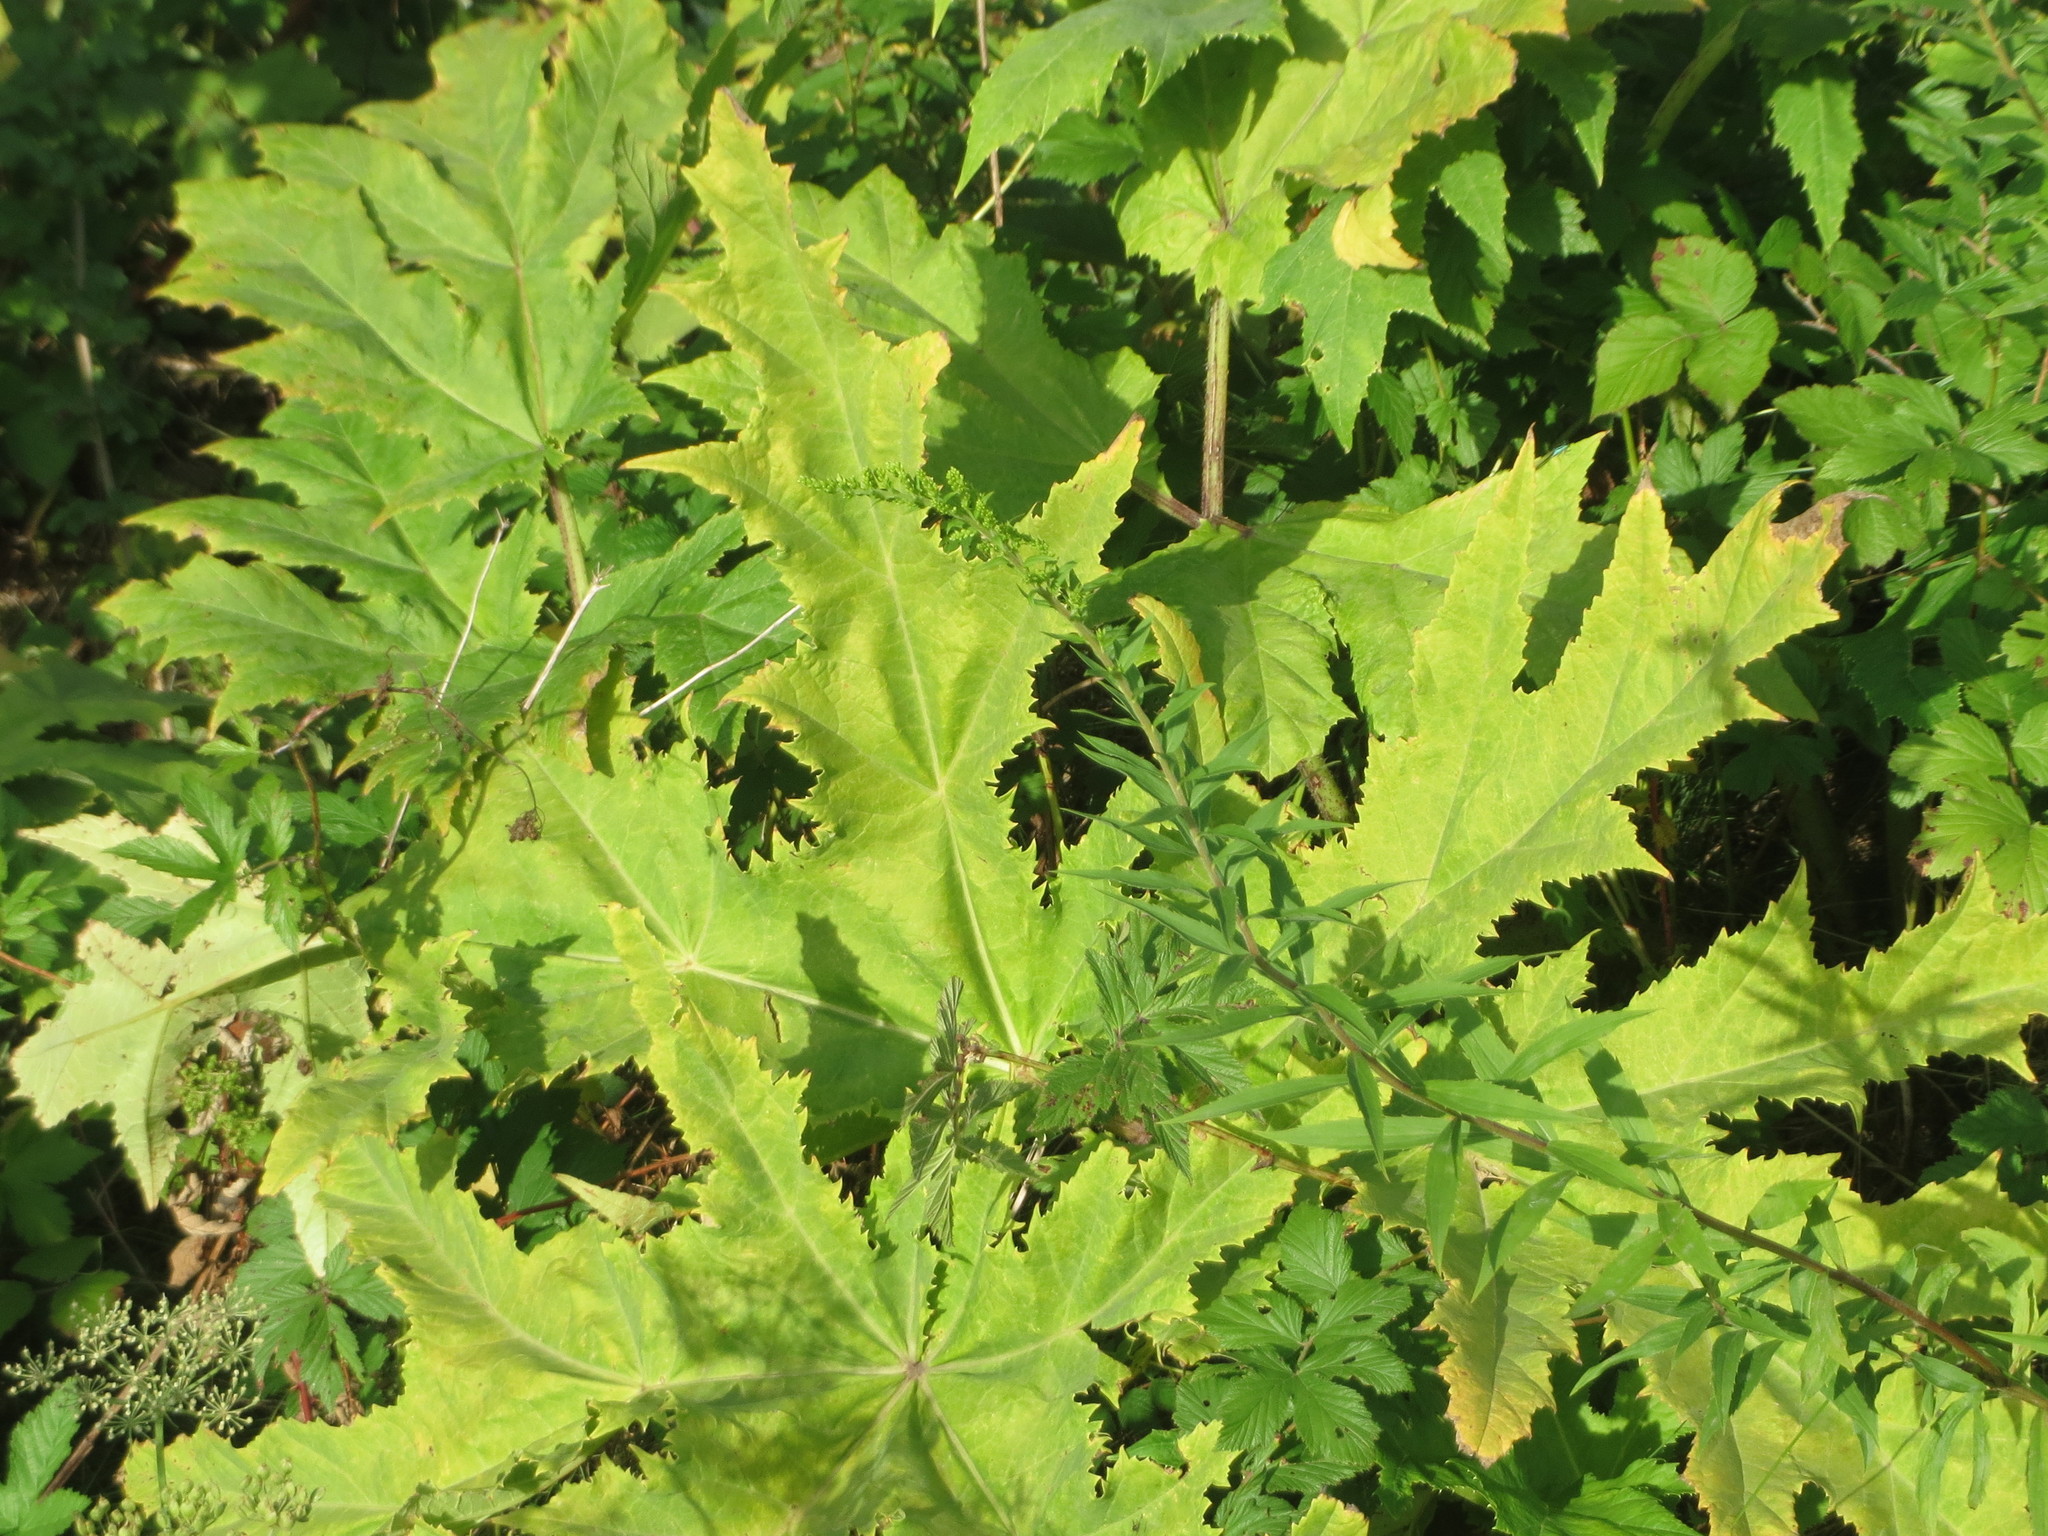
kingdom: Plantae
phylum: Tracheophyta
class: Magnoliopsida
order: Apiales
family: Apiaceae
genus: Heracleum
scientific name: Heracleum mantegazzianum
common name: Giant hogweed
